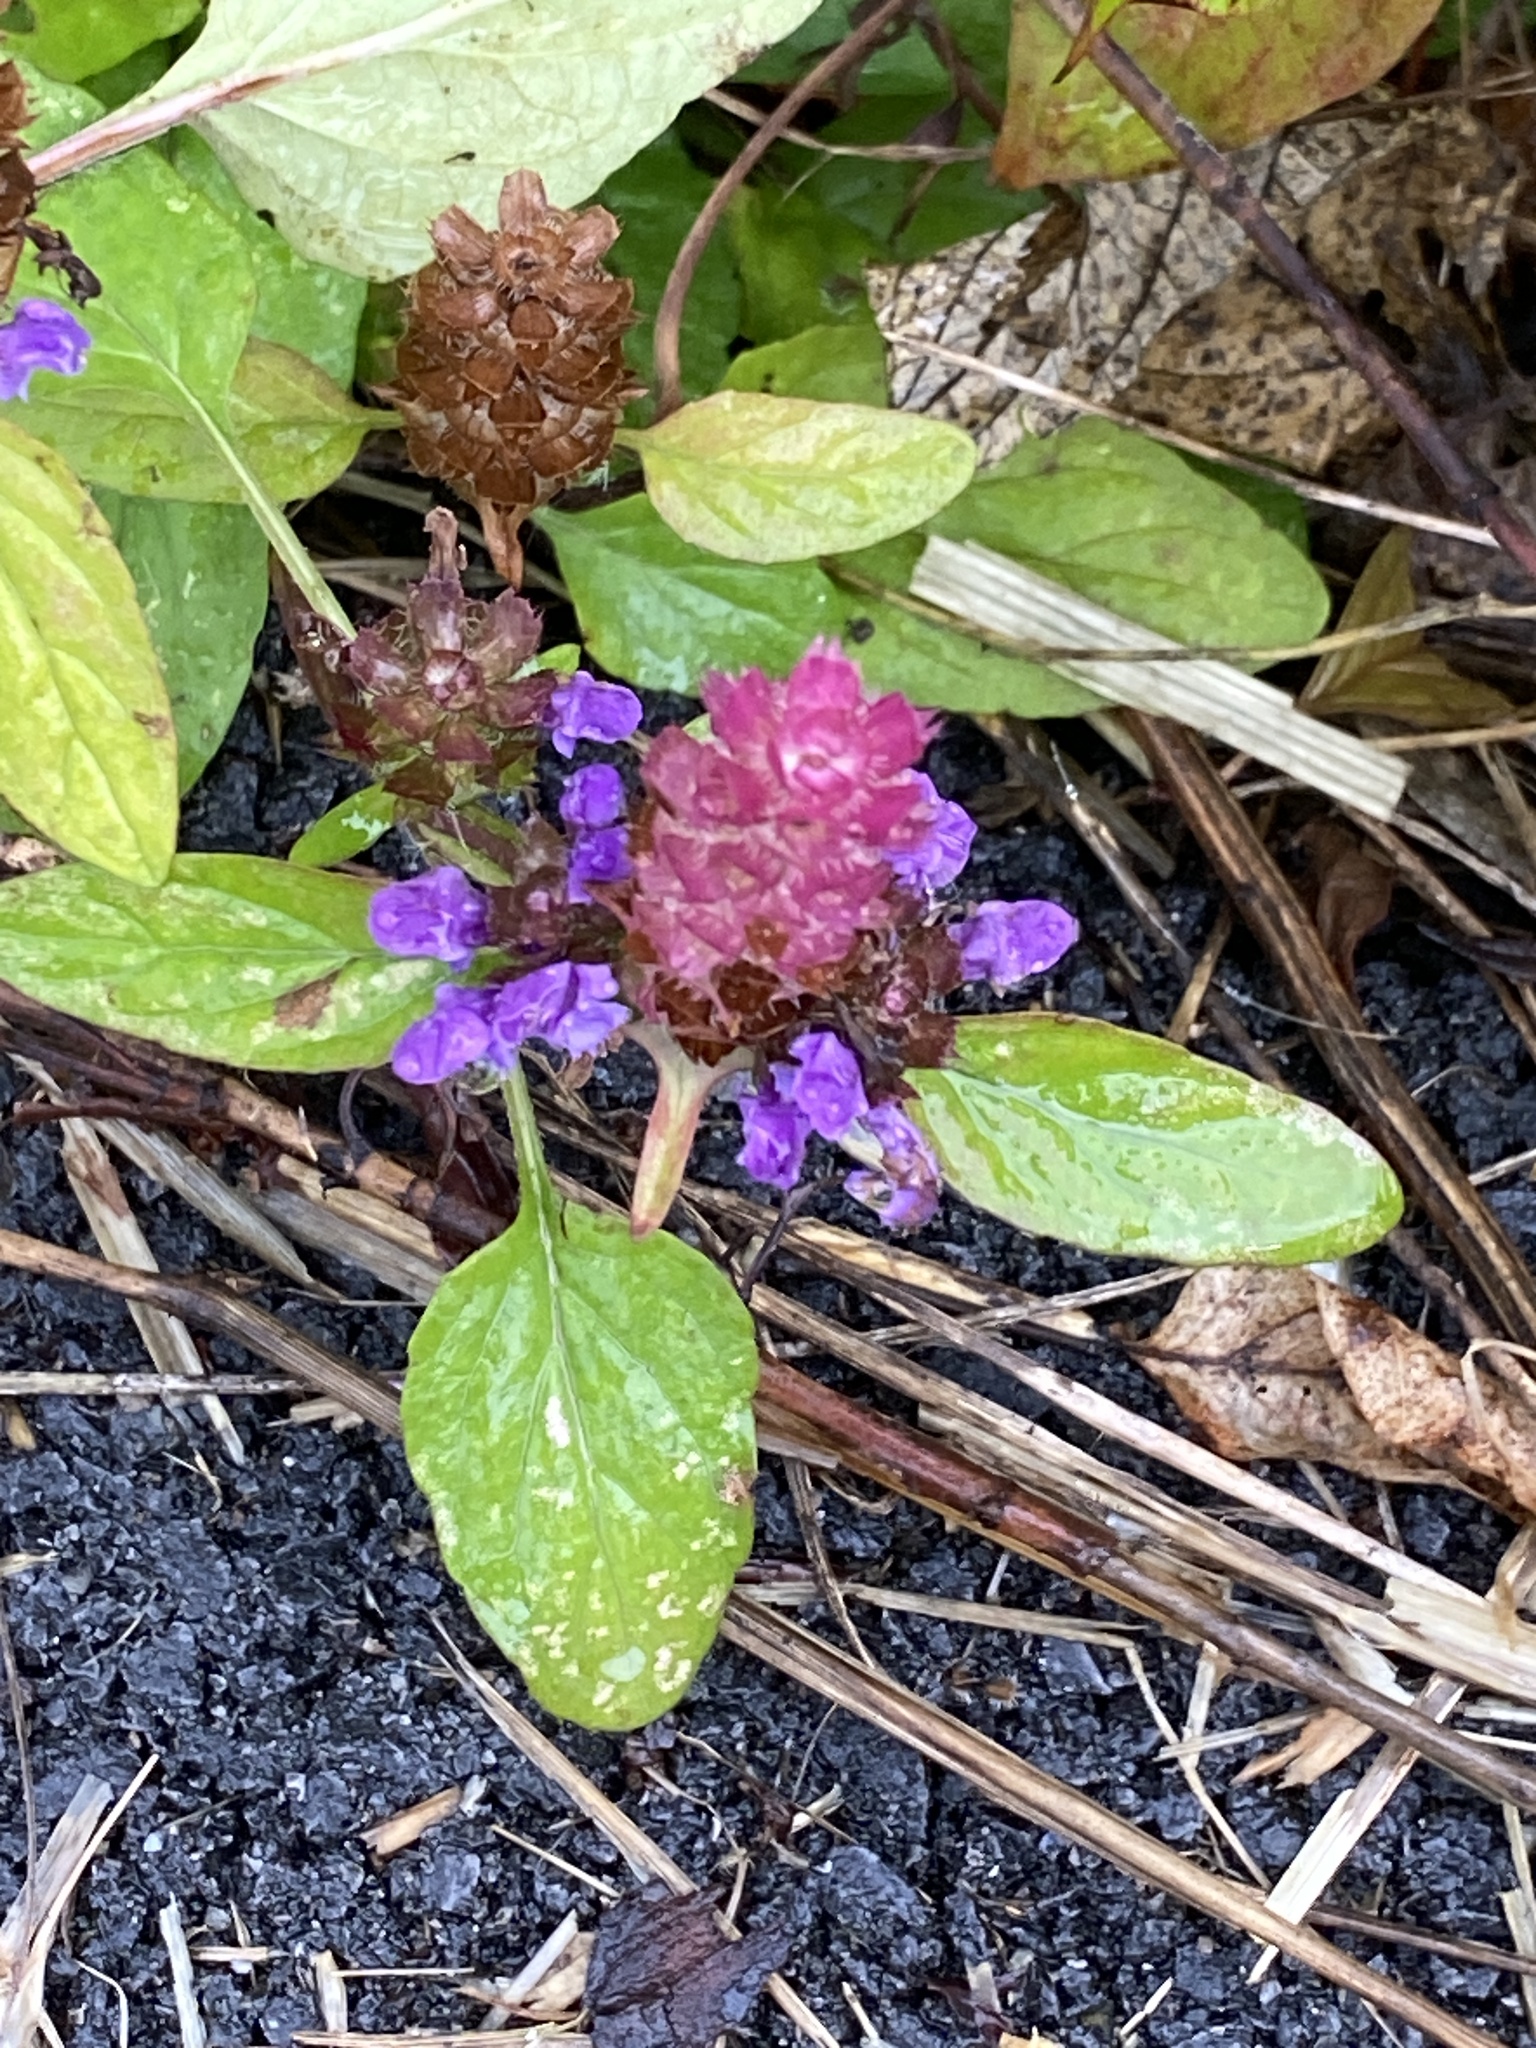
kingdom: Plantae
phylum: Tracheophyta
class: Magnoliopsida
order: Lamiales
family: Lamiaceae
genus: Prunella
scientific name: Prunella vulgaris
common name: Heal-all
